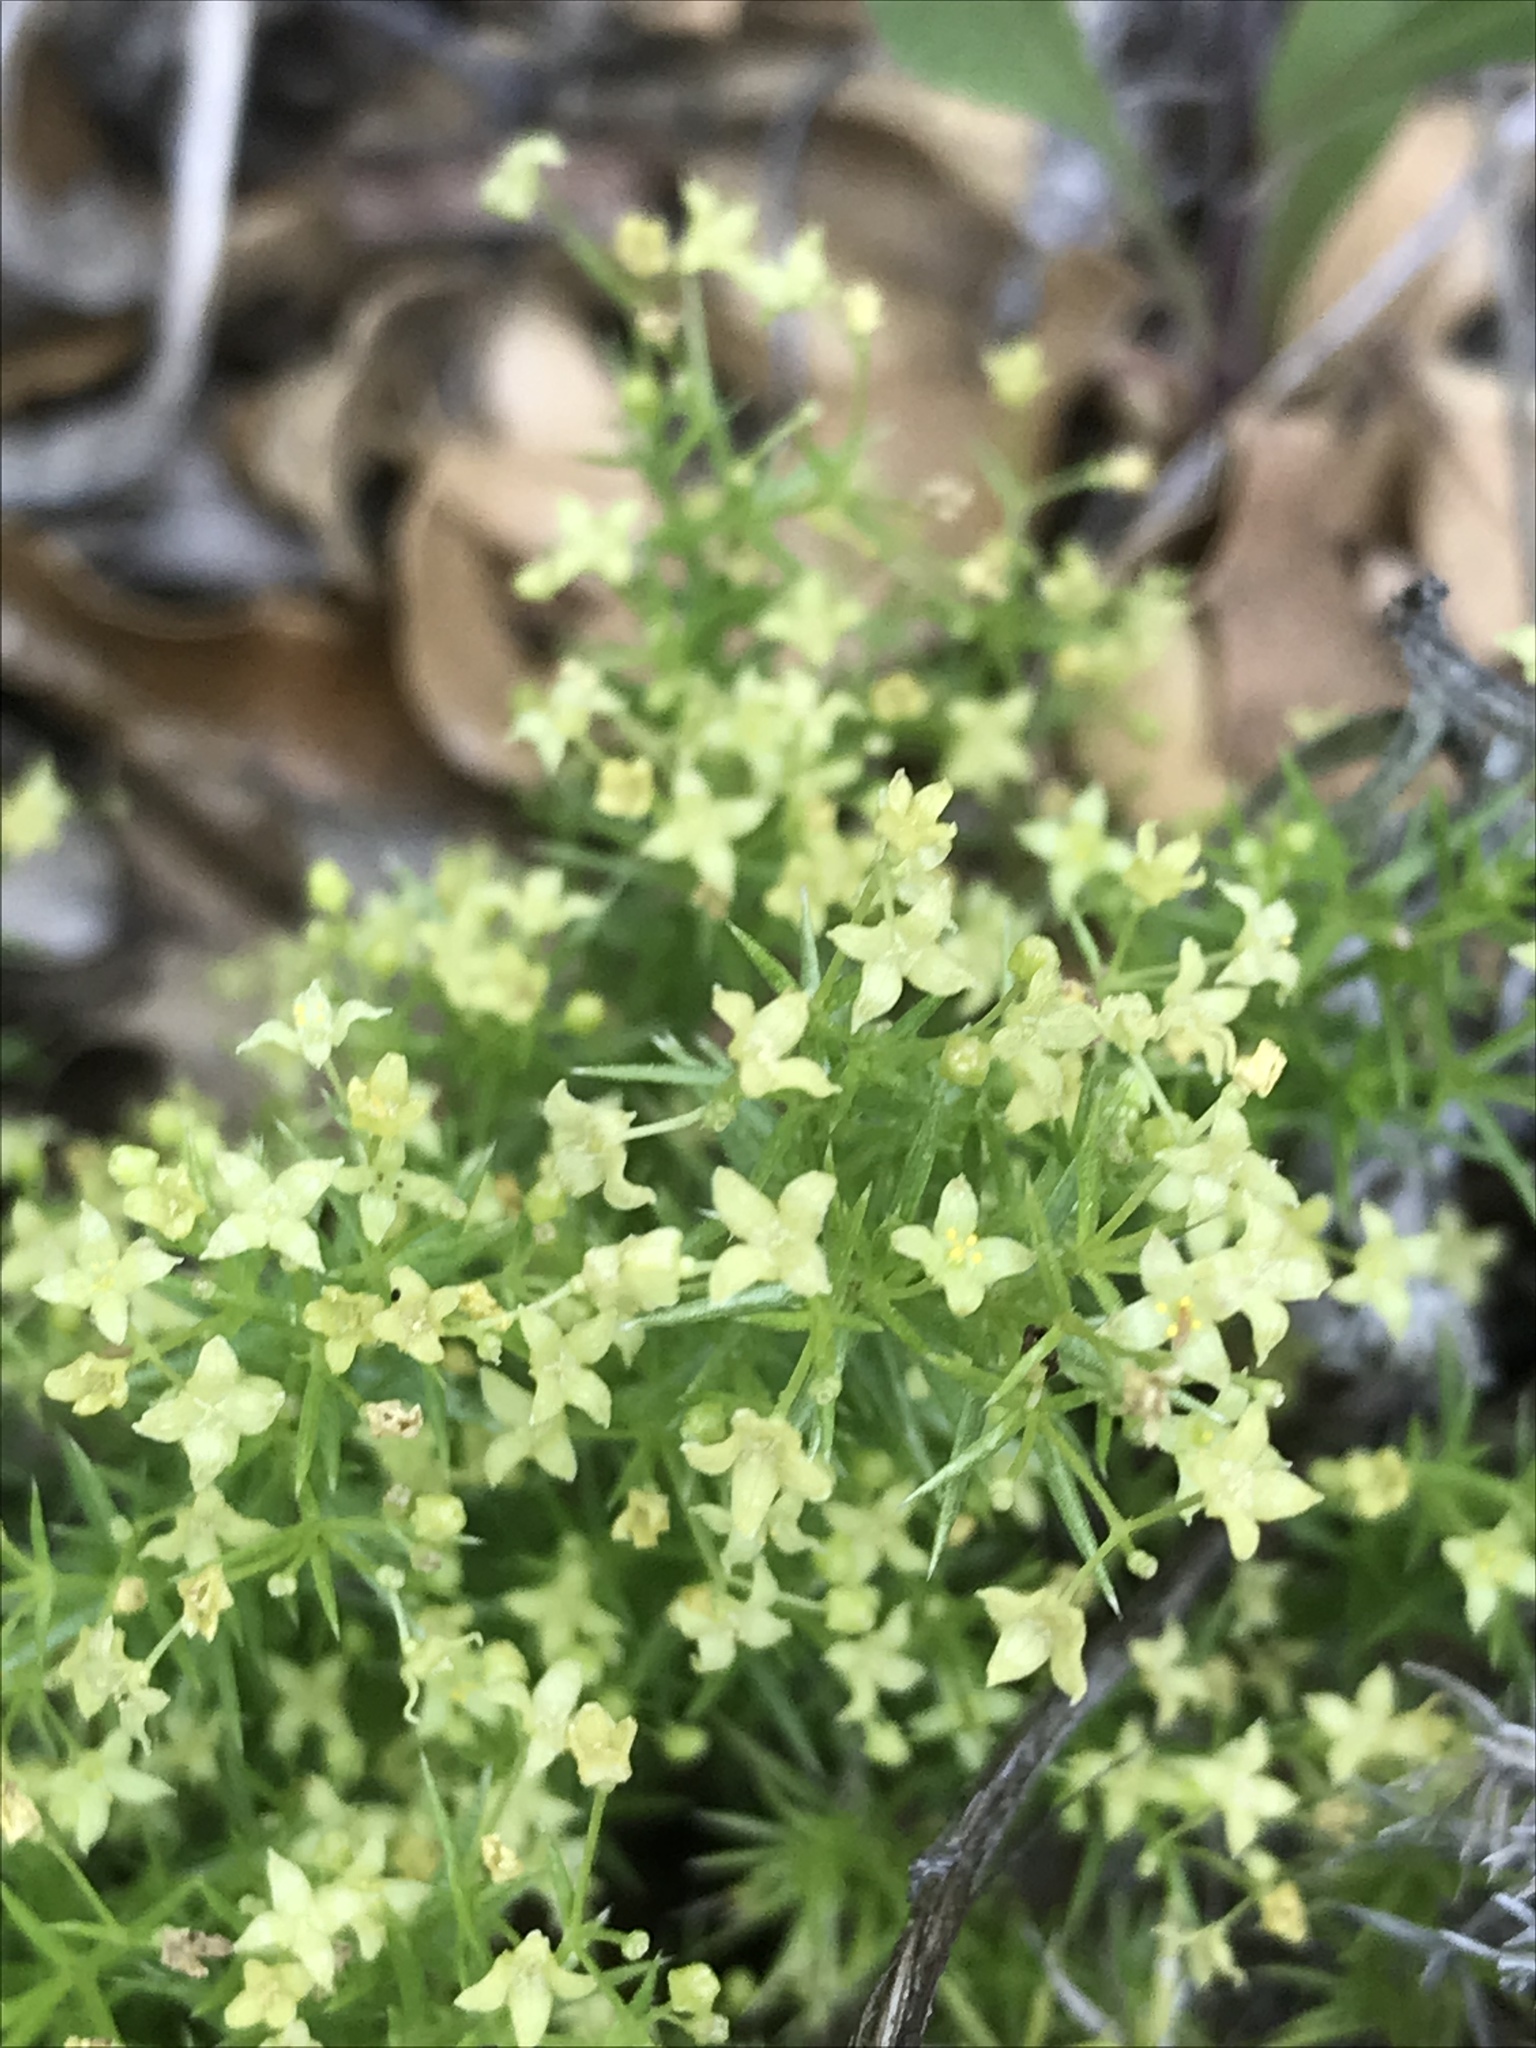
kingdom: Plantae
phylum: Tracheophyta
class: Magnoliopsida
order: Gentianales
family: Rubiaceae
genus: Galium
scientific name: Galium andrewsii
